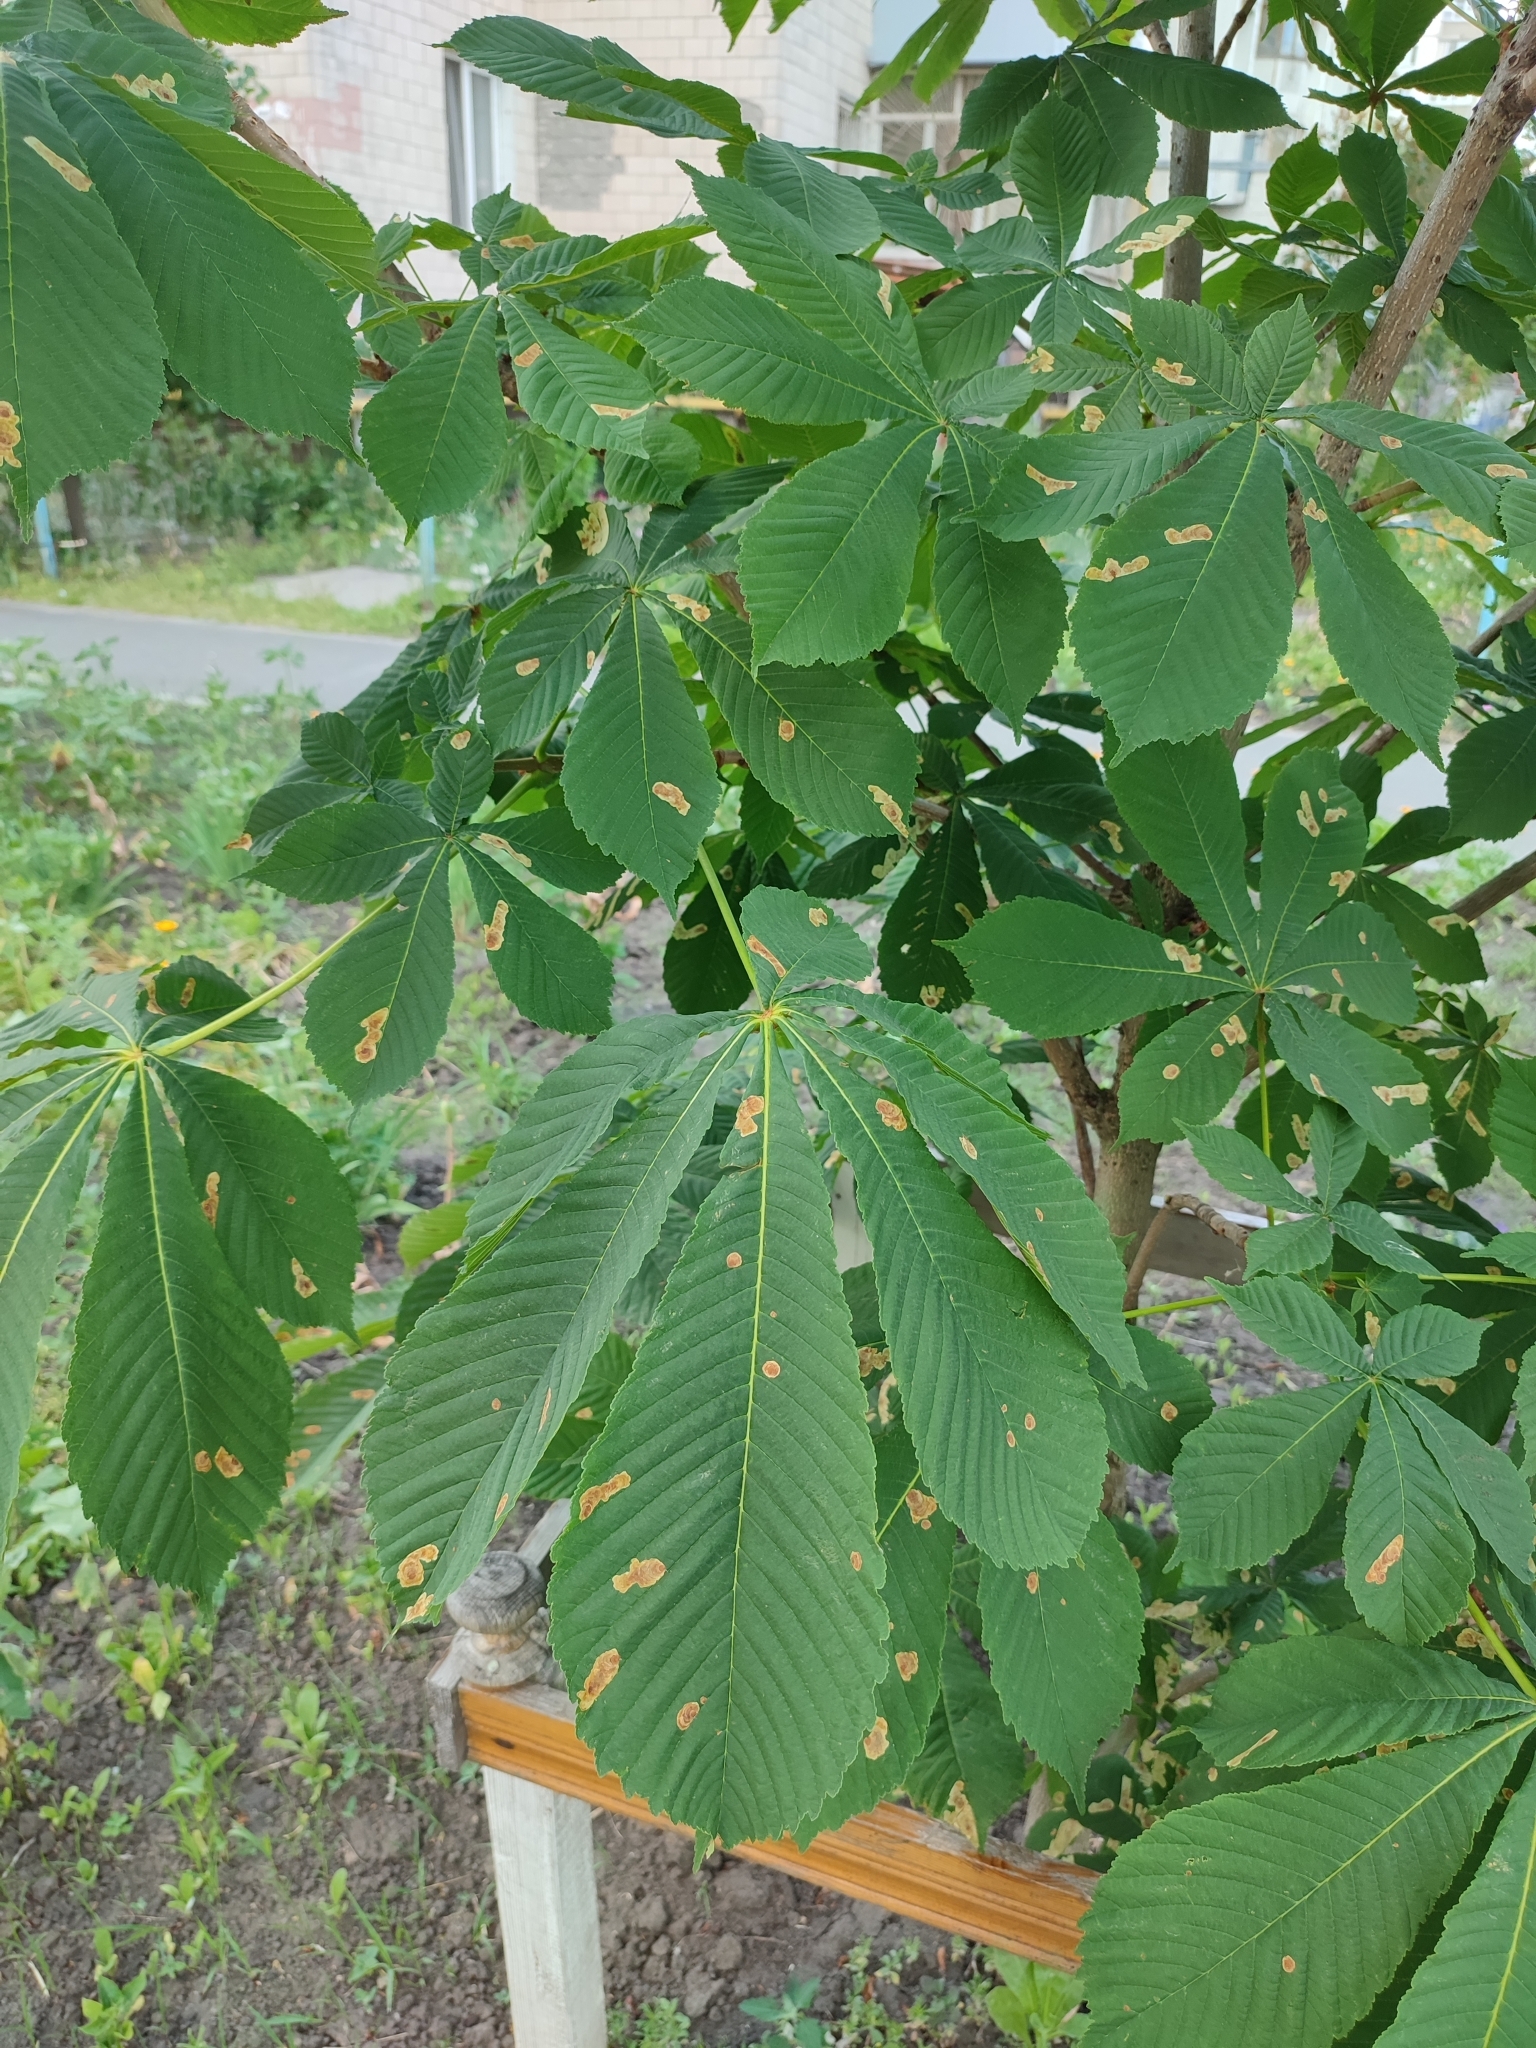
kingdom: Animalia
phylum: Arthropoda
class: Insecta
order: Lepidoptera
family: Gracillariidae
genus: Cameraria
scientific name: Cameraria ohridella
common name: Horse-chestnut leaf-miner
